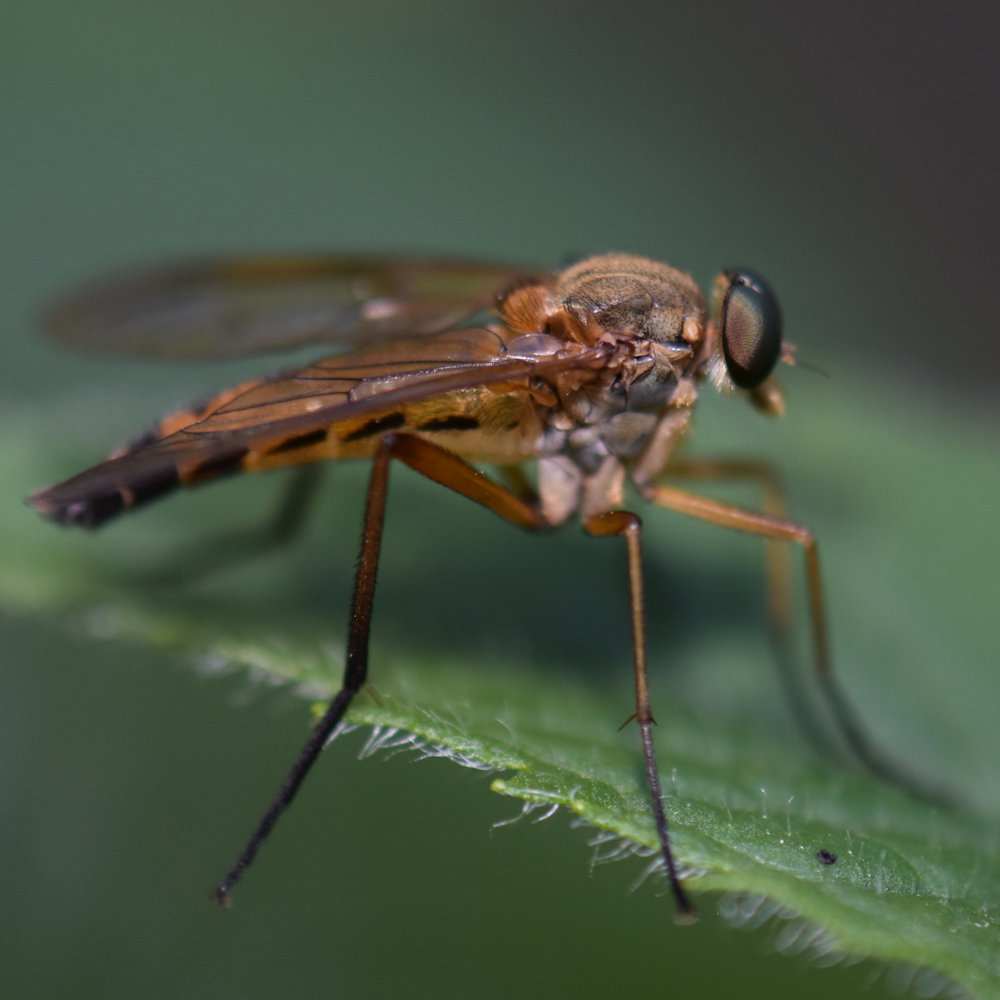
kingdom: Animalia
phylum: Arthropoda
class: Insecta
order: Diptera
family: Rhagionidae
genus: Rhagio
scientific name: Rhagio tringaria
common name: Marsh snipefly
